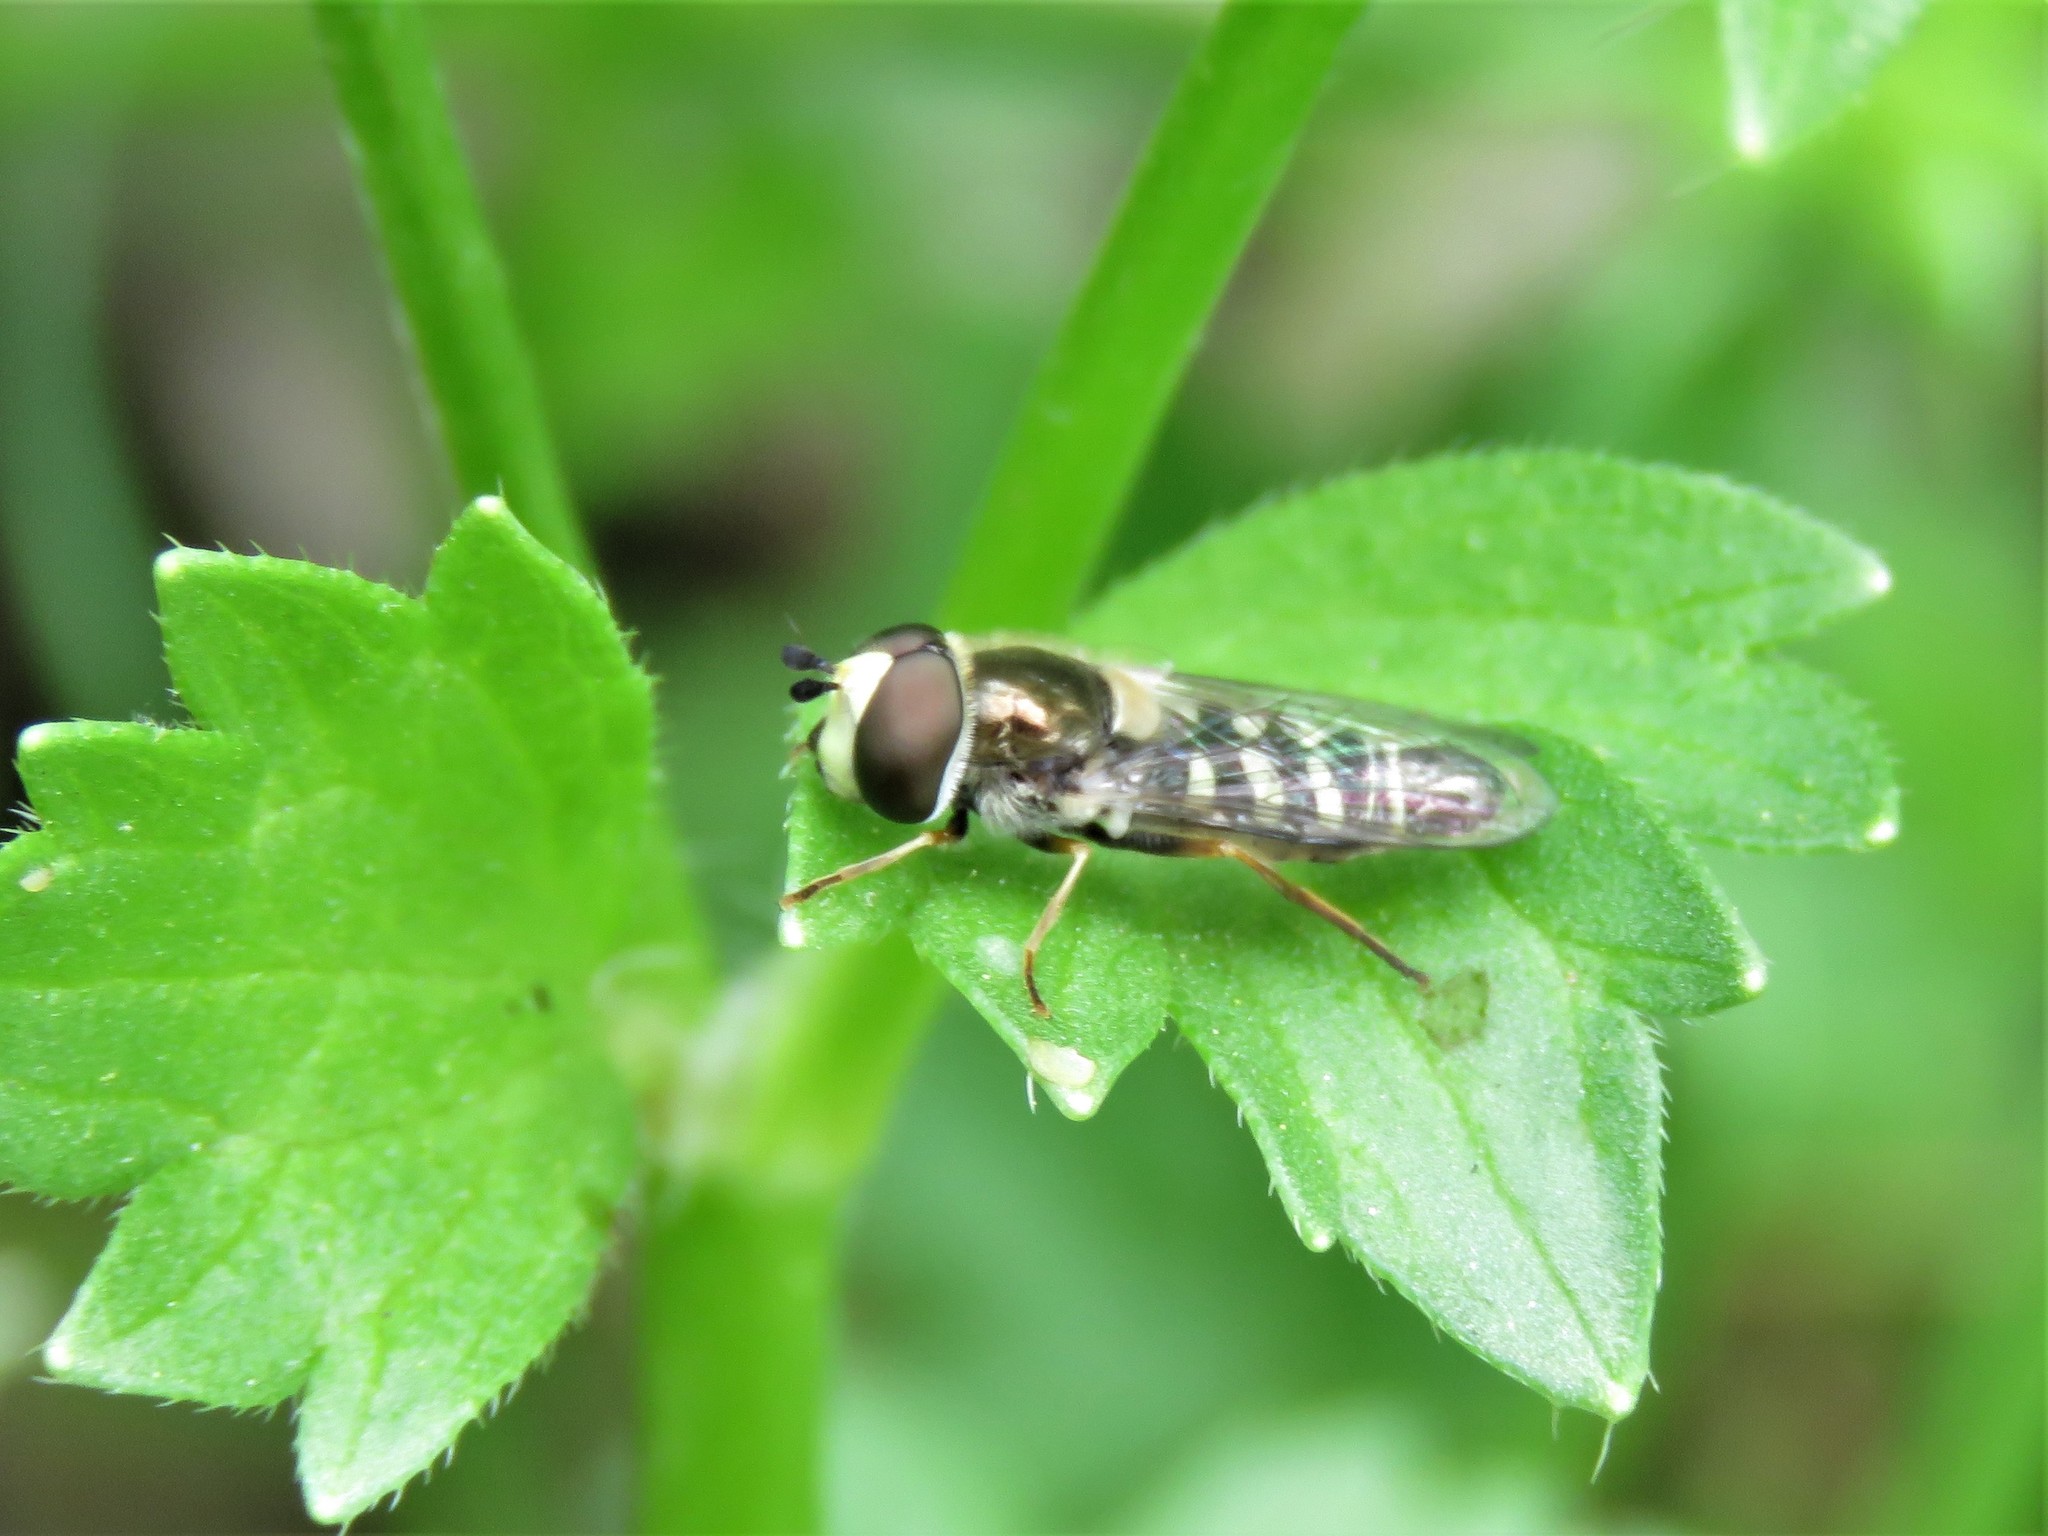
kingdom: Animalia
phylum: Arthropoda
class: Insecta
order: Diptera
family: Syrphidae
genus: Eupeodes
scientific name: Eupeodes volucris
